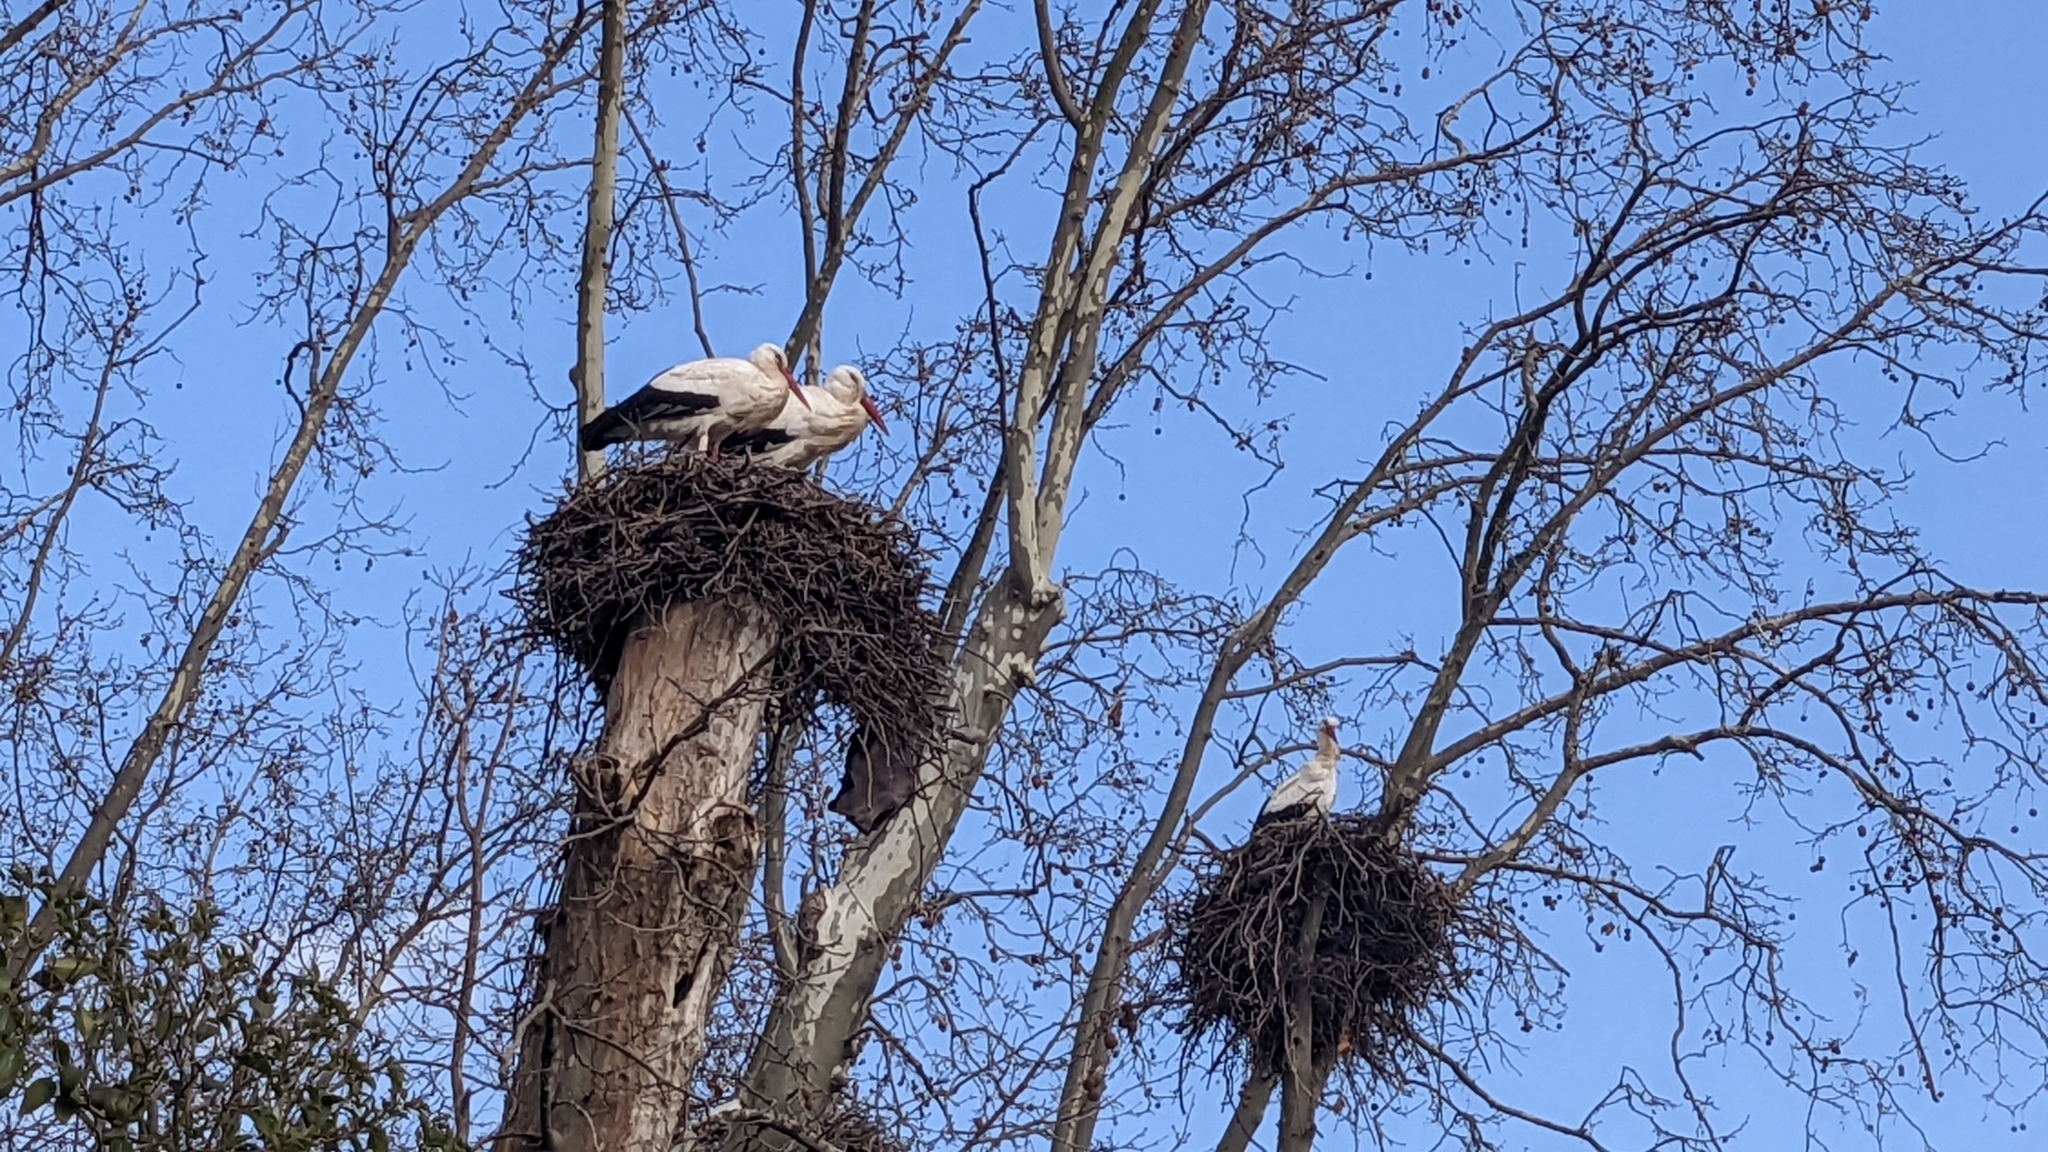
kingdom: Animalia
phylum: Chordata
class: Aves
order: Ciconiiformes
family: Ciconiidae
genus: Ciconia
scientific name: Ciconia ciconia
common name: White stork
